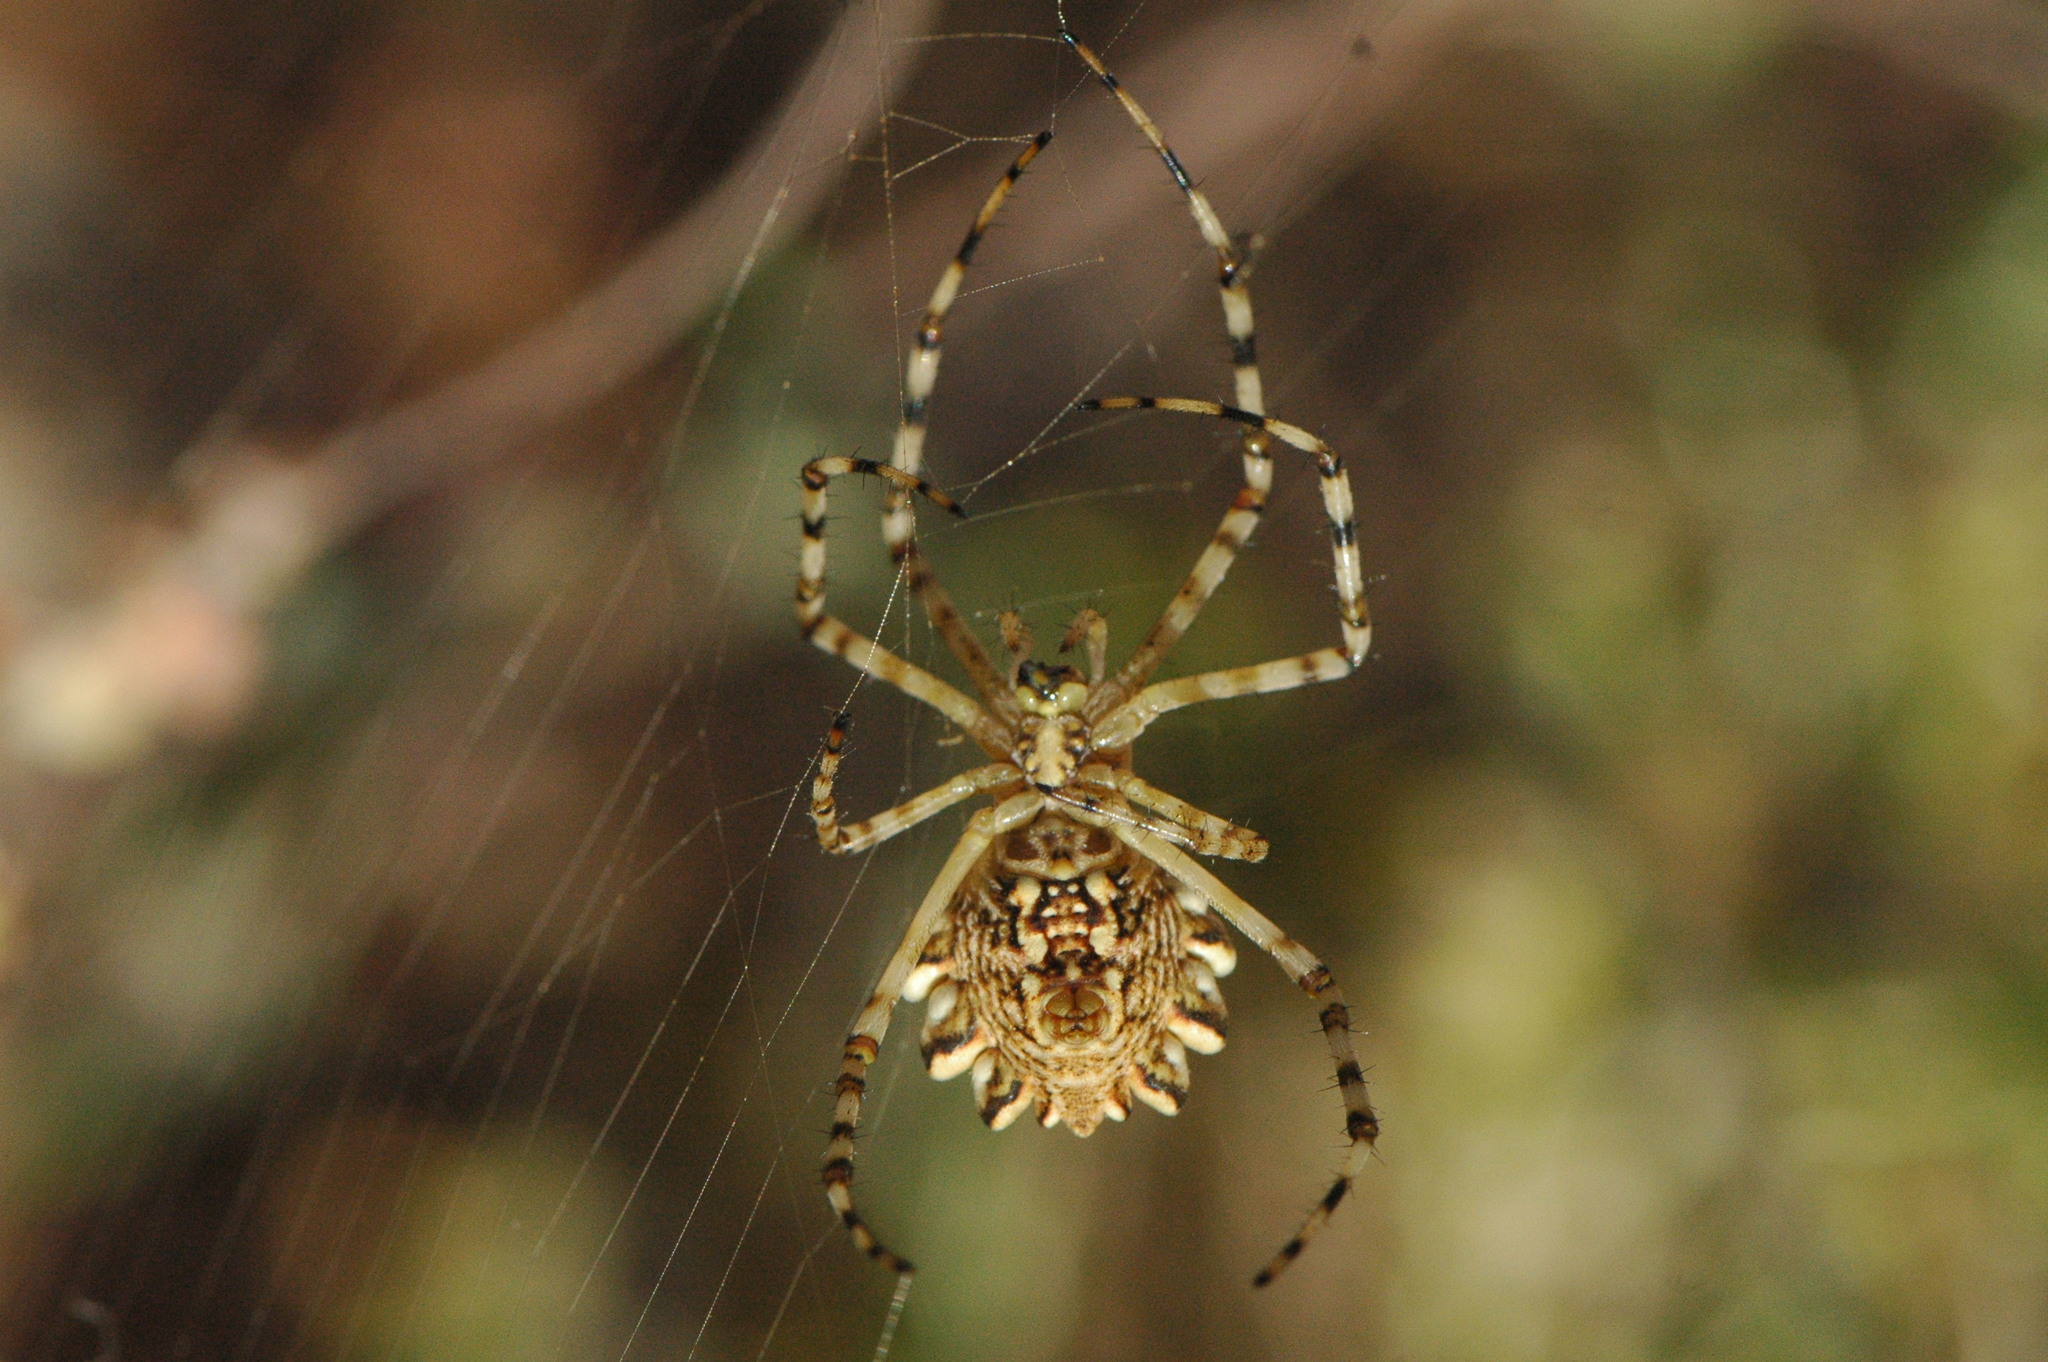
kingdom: Animalia
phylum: Arthropoda
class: Arachnida
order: Araneae
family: Araneidae
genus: Argiope
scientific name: Argiope lobata
